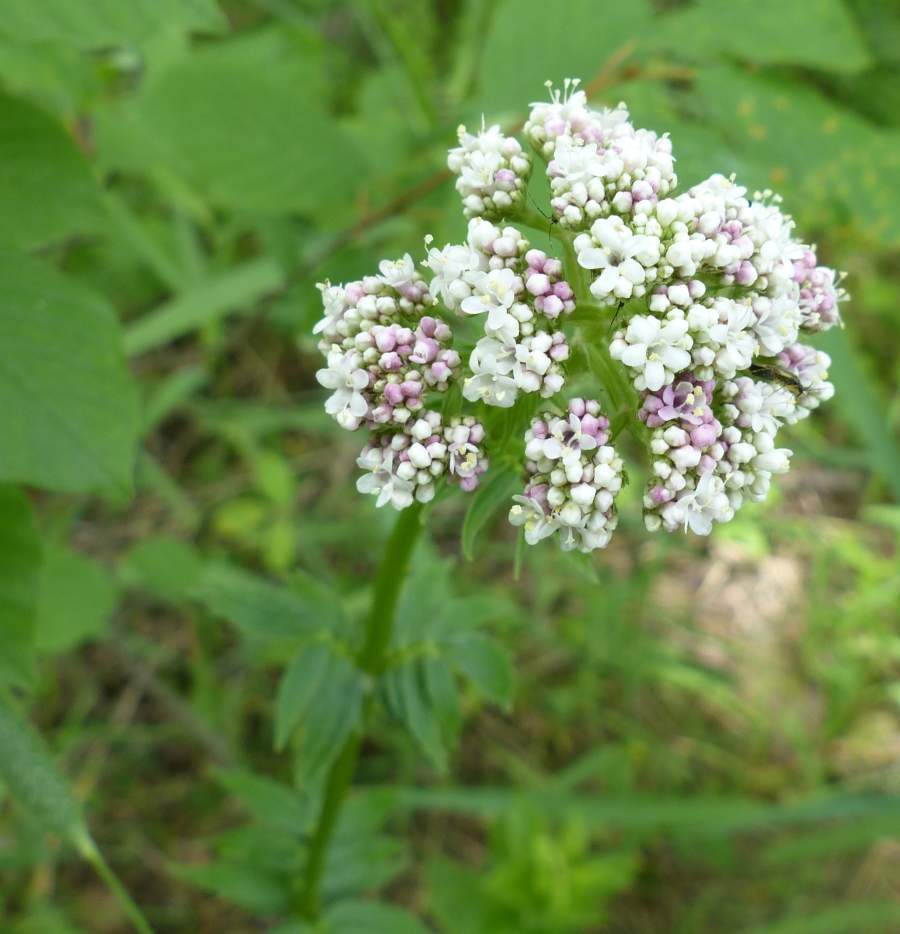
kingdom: Plantae
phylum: Tracheophyta
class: Magnoliopsida
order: Dipsacales
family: Caprifoliaceae
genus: Valeriana
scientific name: Valeriana officinalis
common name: Common valerian
